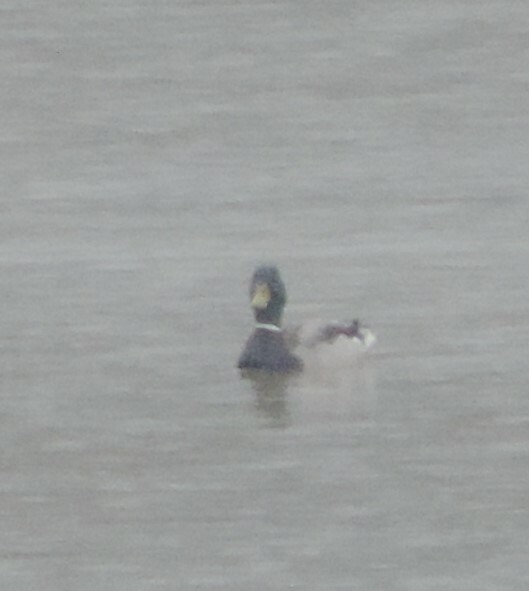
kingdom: Animalia
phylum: Chordata
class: Aves
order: Anseriformes
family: Anatidae
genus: Anas
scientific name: Anas platyrhynchos
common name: Mallard
